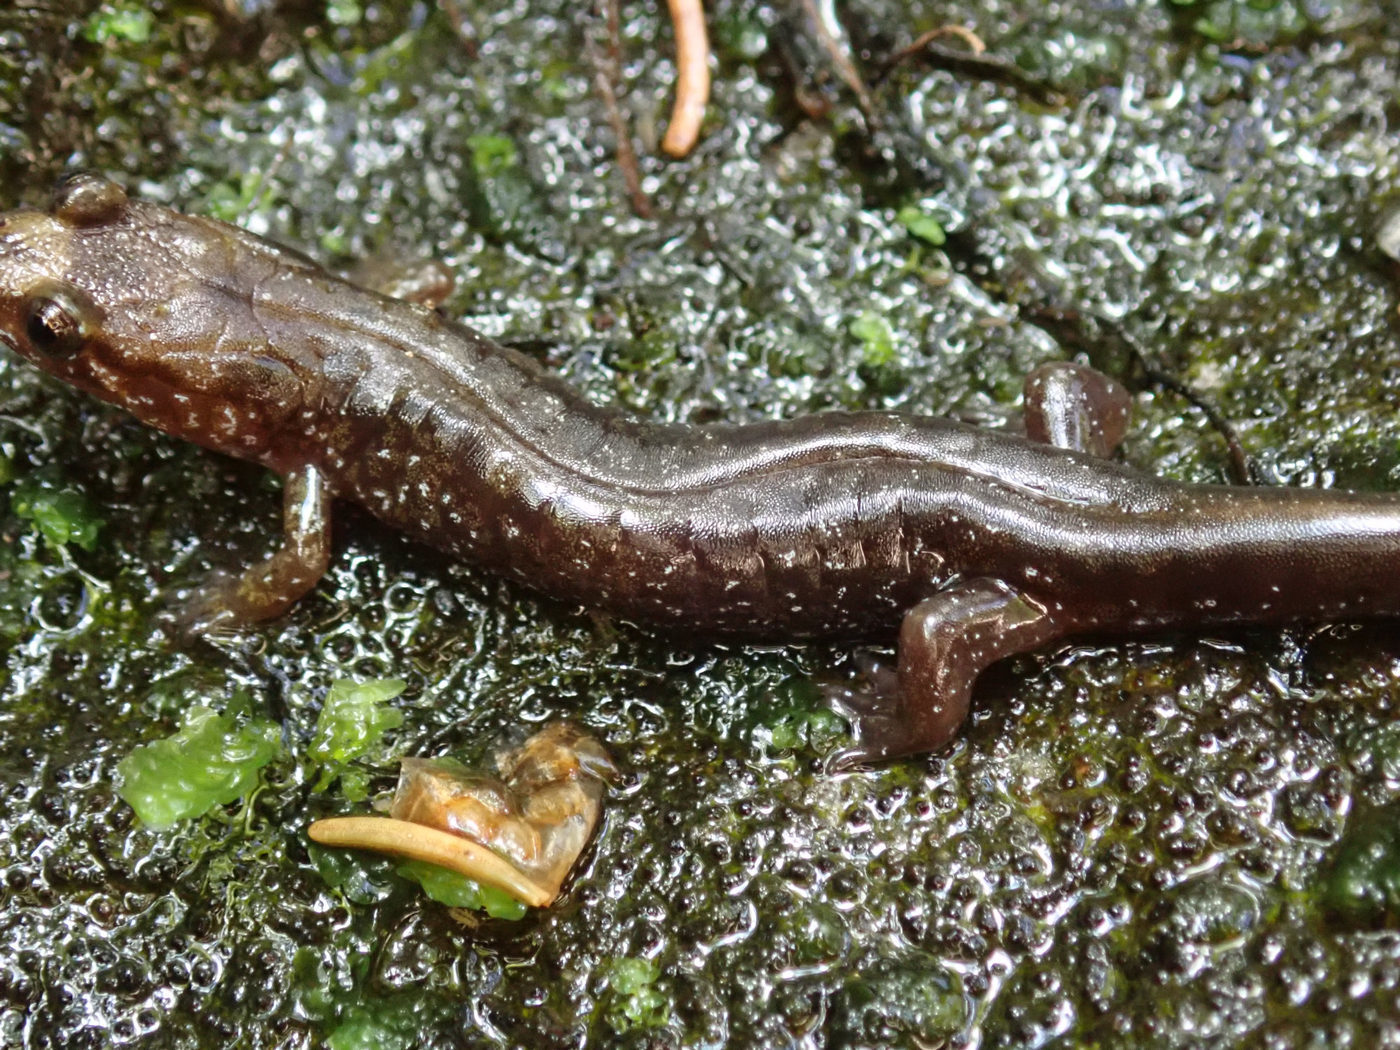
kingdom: Animalia
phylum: Chordata
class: Amphibia
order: Caudata
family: Plethodontidae
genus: Desmognathus
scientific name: Desmognathus carolinensis
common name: Carolina mountain dusky salamander
